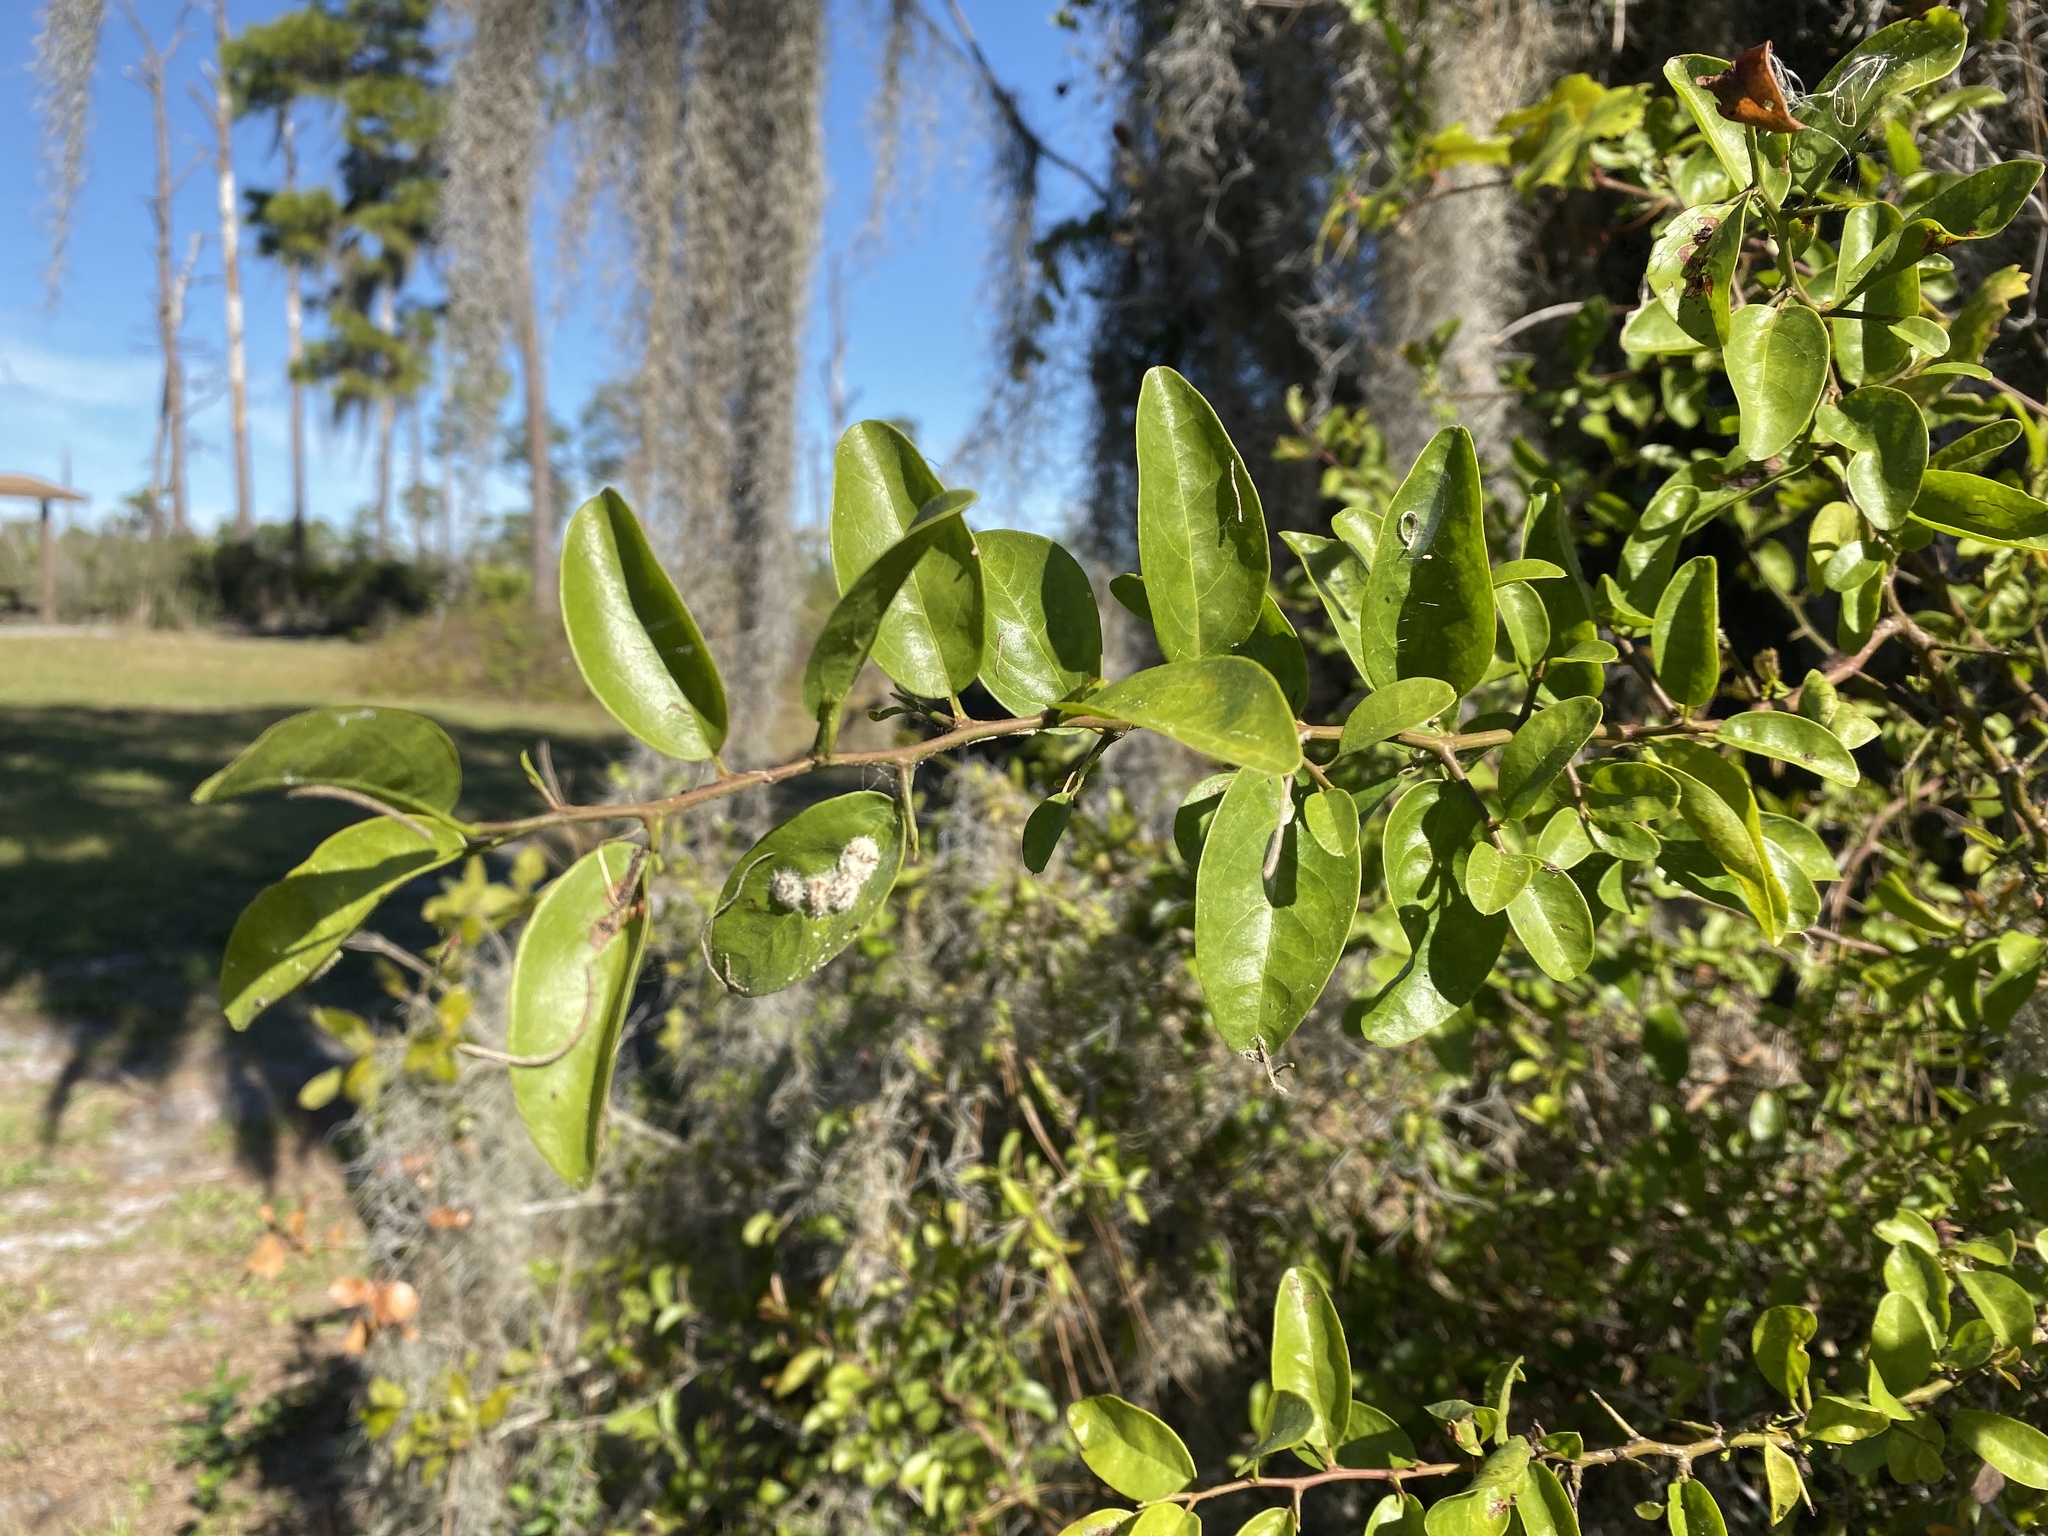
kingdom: Plantae
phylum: Tracheophyta
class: Magnoliopsida
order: Santalales
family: Ximeniaceae
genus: Ximenia
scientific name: Ximenia americana
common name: Tallowwood
